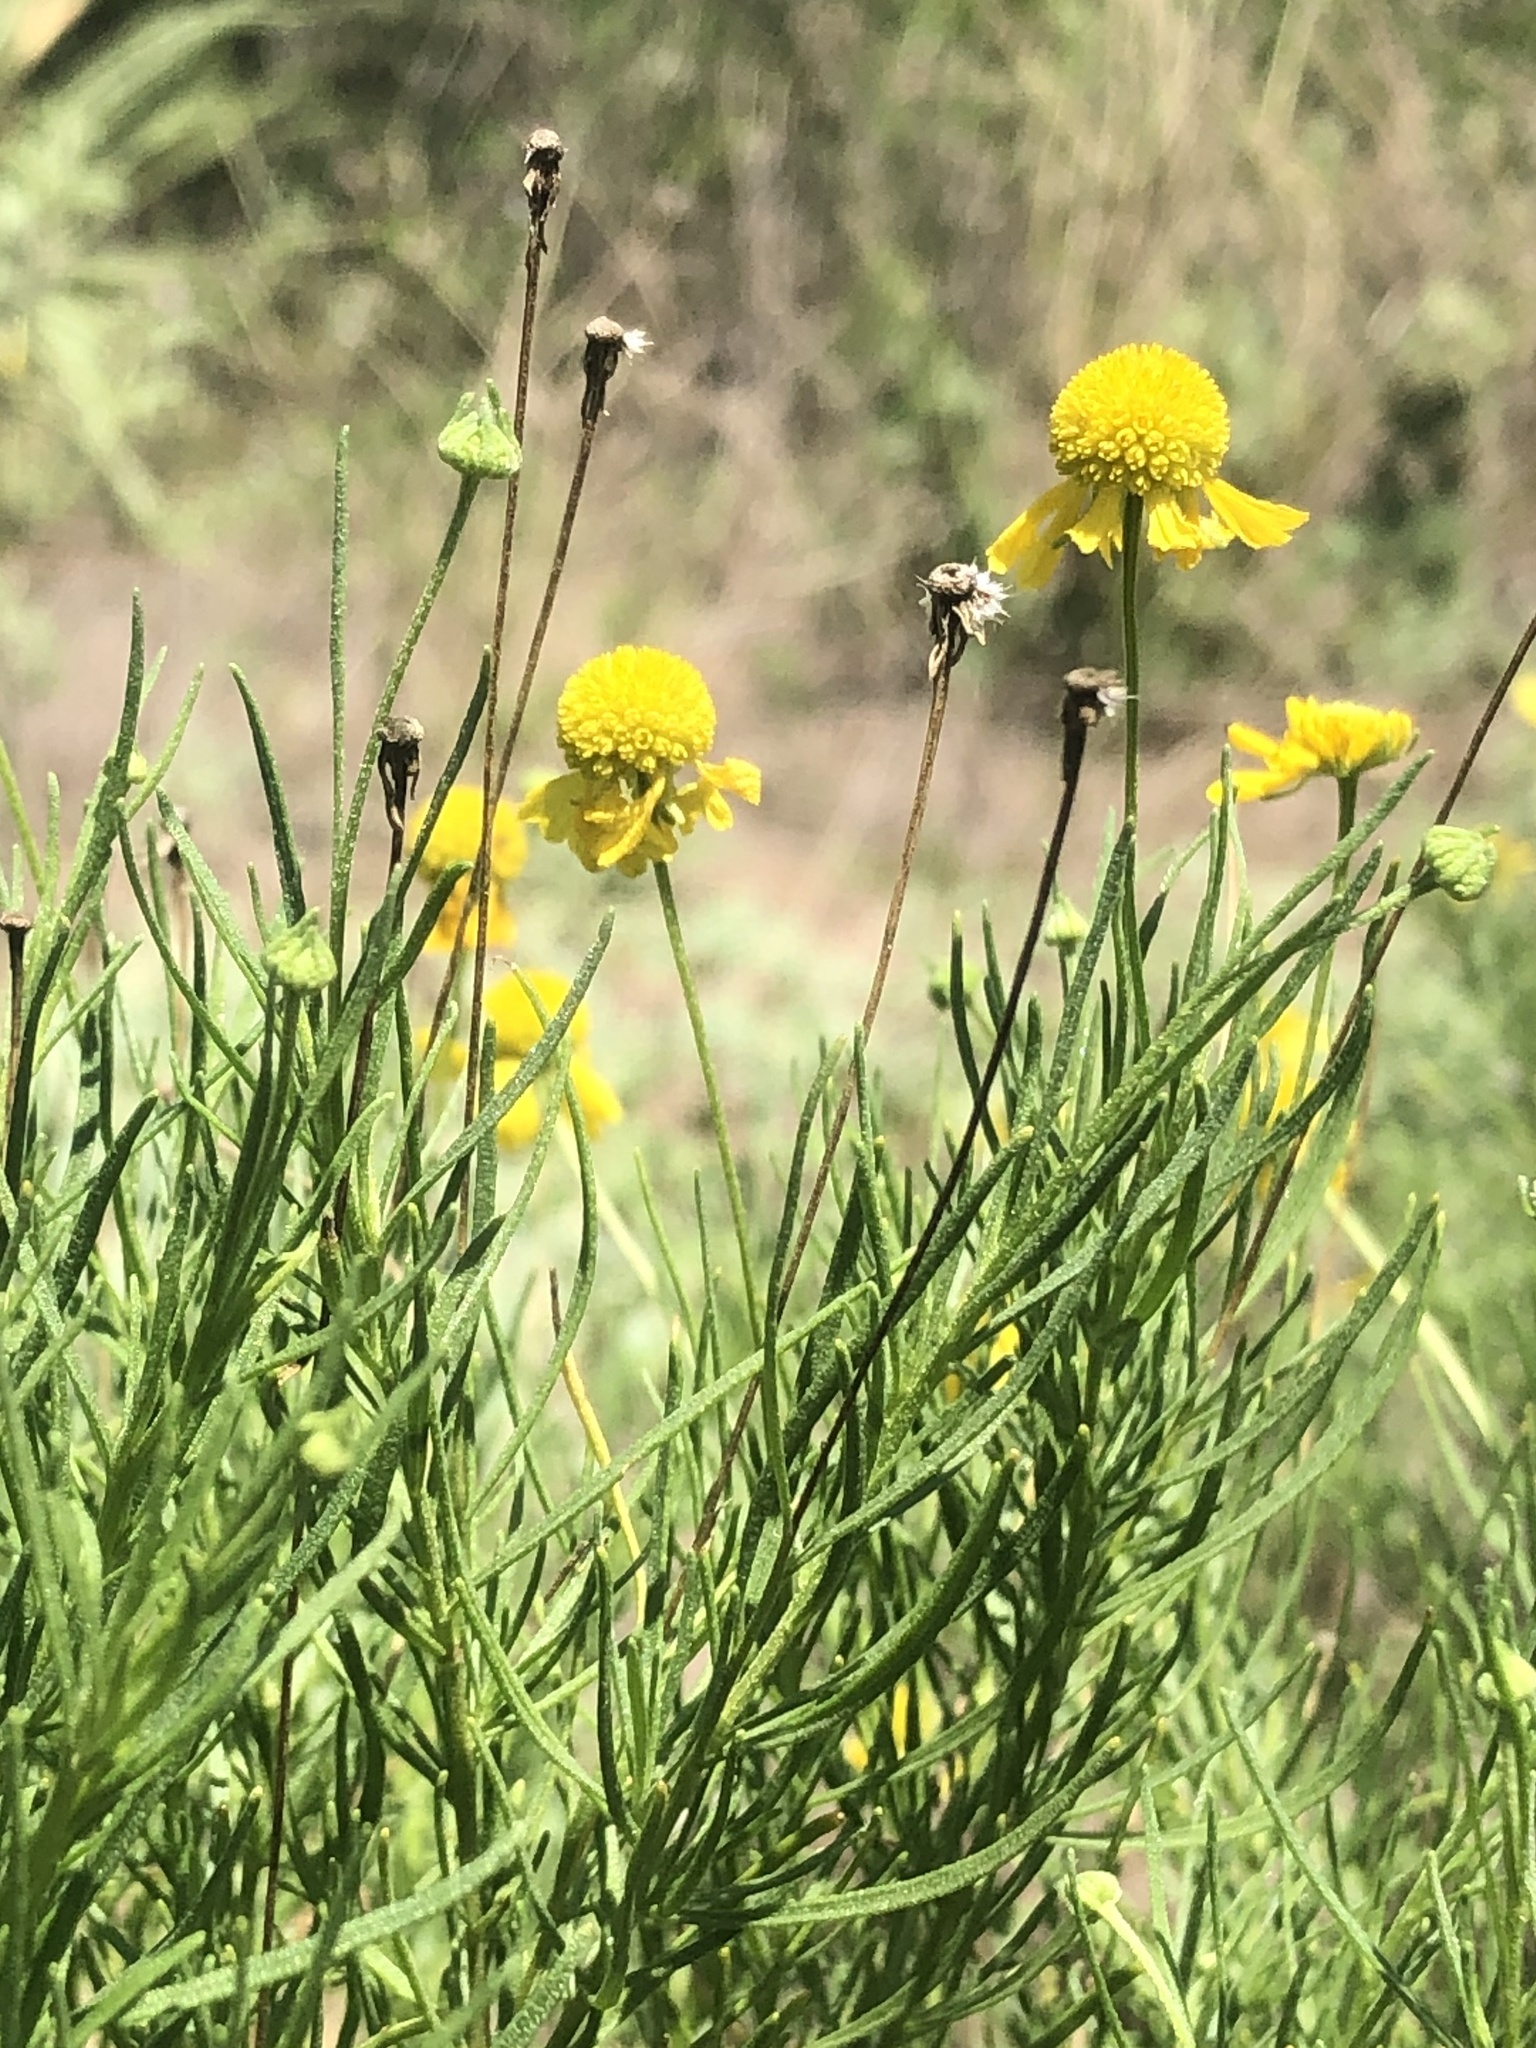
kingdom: Plantae
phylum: Tracheophyta
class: Magnoliopsida
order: Asterales
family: Asteraceae
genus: Helenium
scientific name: Helenium amarum
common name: Bitter sneezeweed
